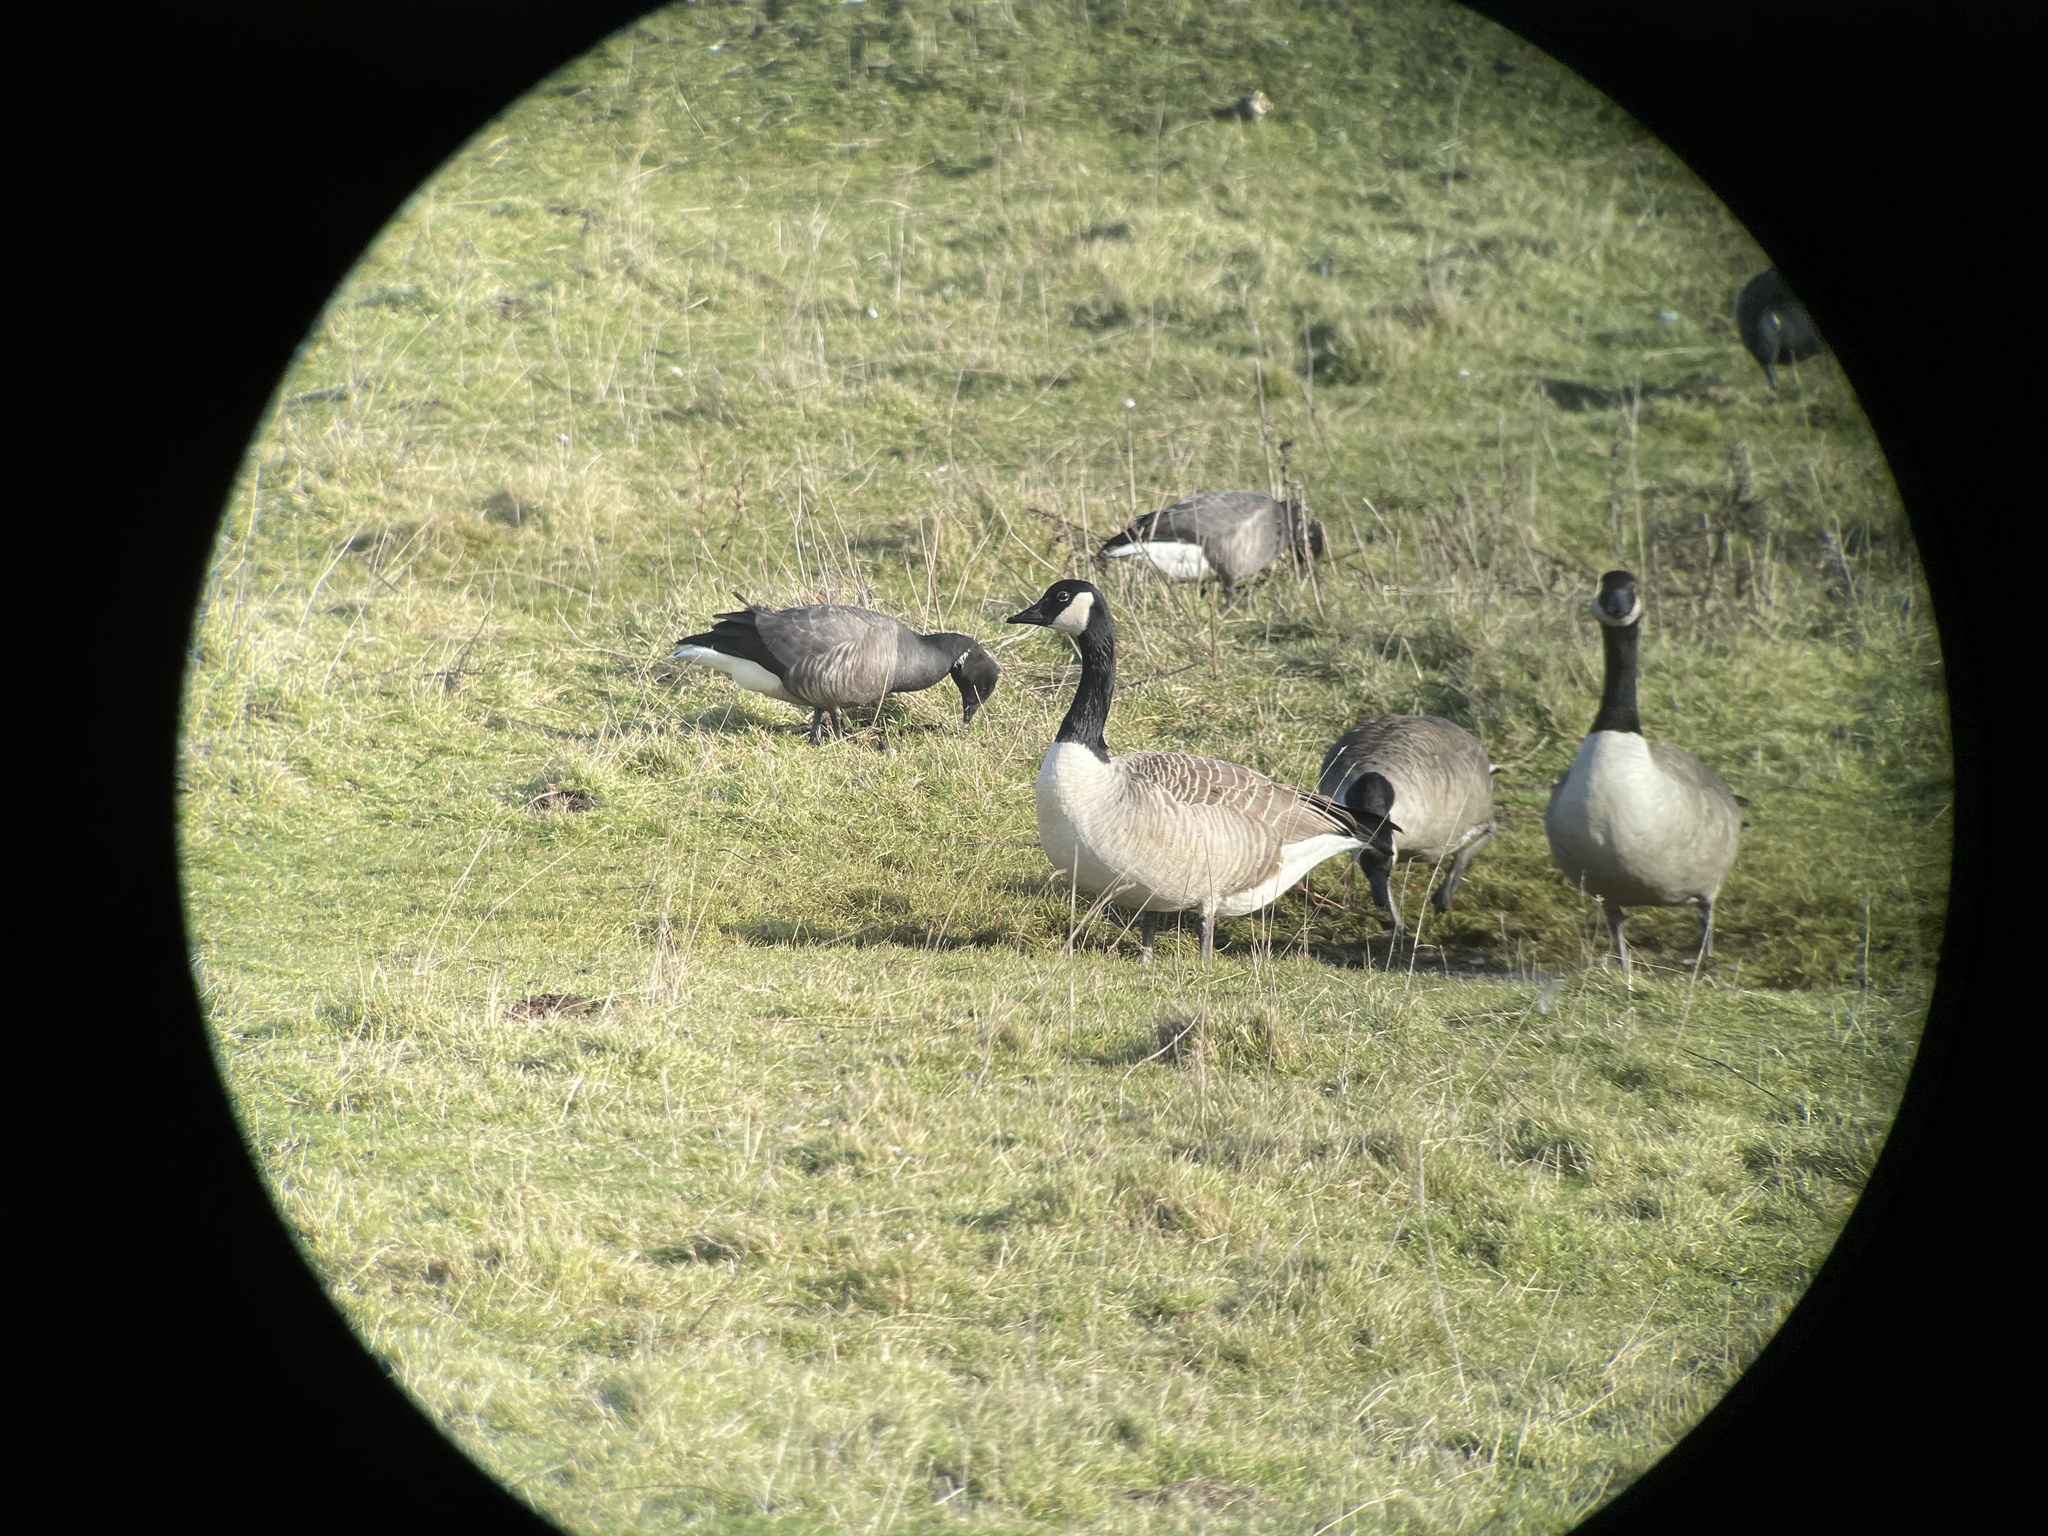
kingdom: Animalia
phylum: Chordata
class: Aves
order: Anseriformes
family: Anatidae
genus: Branta
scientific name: Branta canadensis
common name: Canada goose
